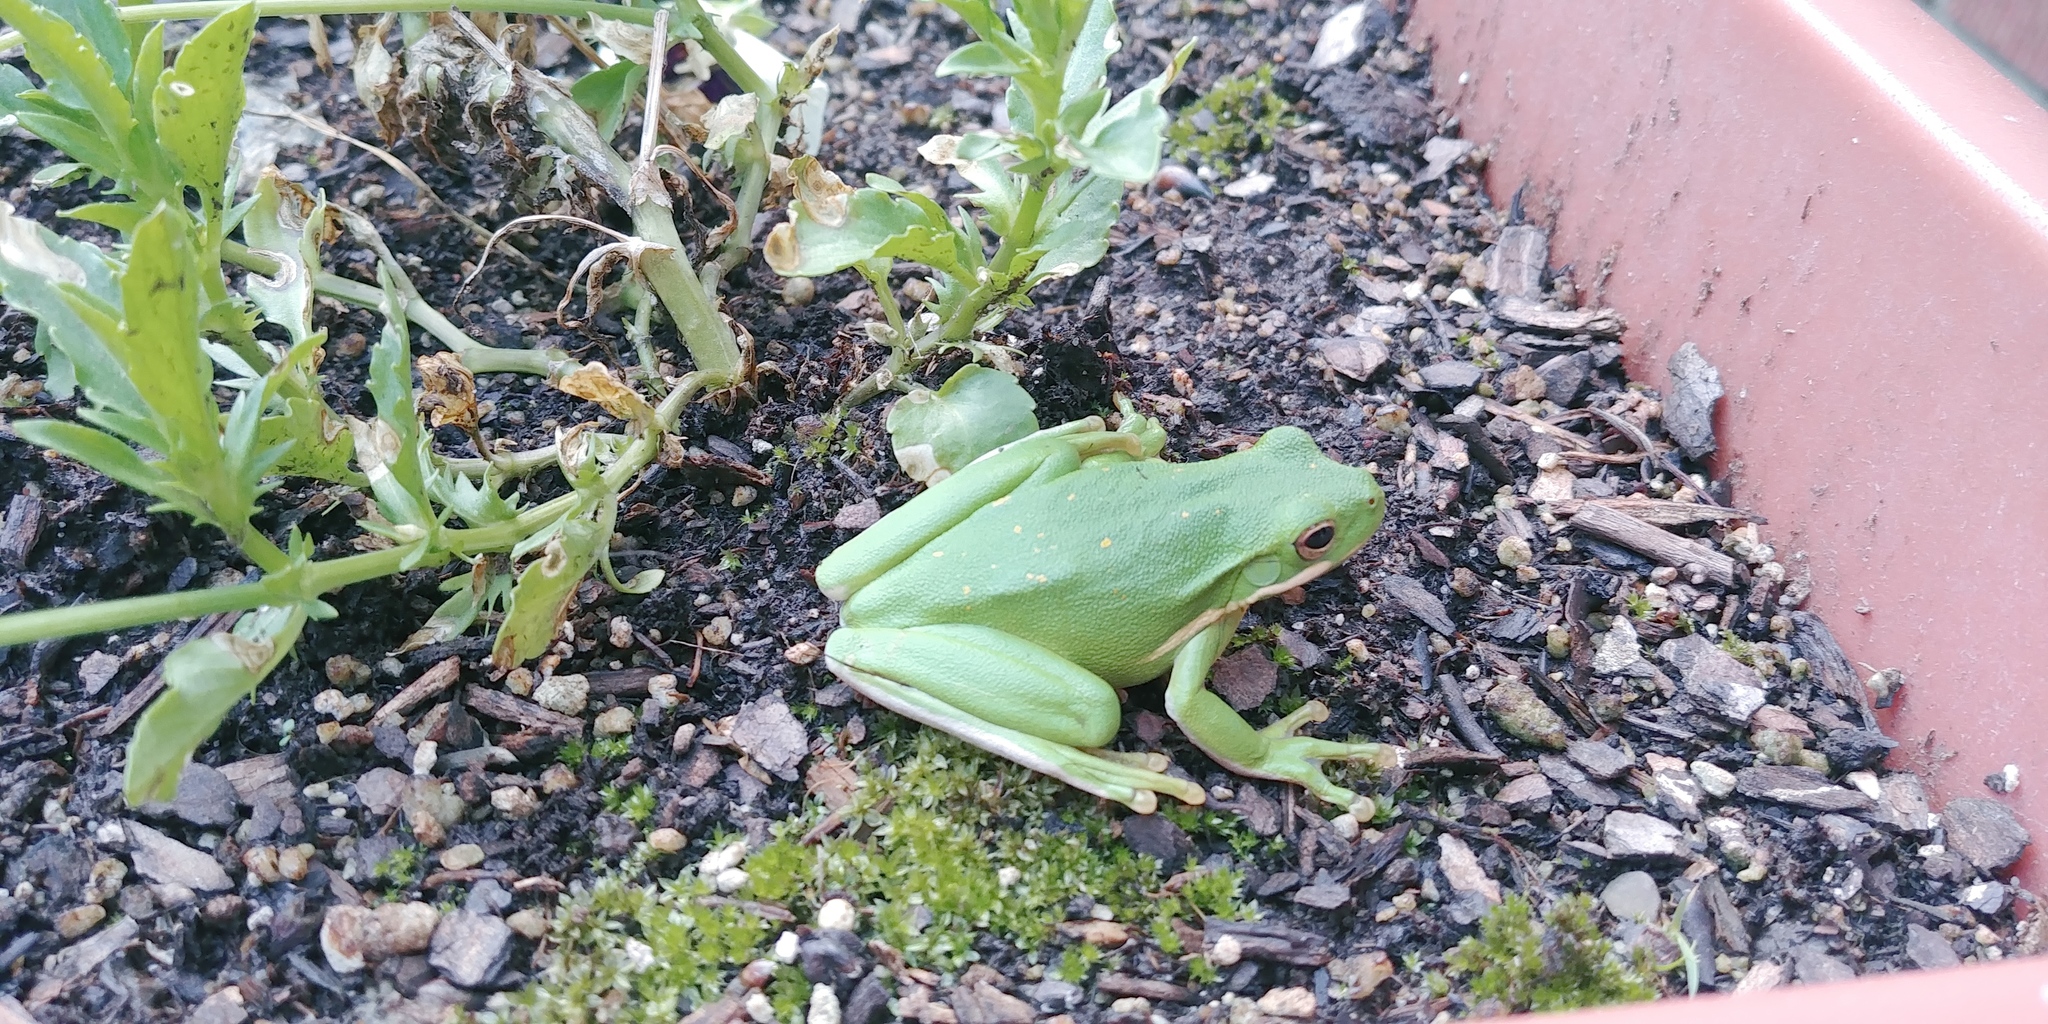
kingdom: Animalia
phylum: Chordata
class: Amphibia
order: Anura
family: Hylidae
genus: Dryophytes
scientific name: Dryophytes cinereus
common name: Green treefrog
